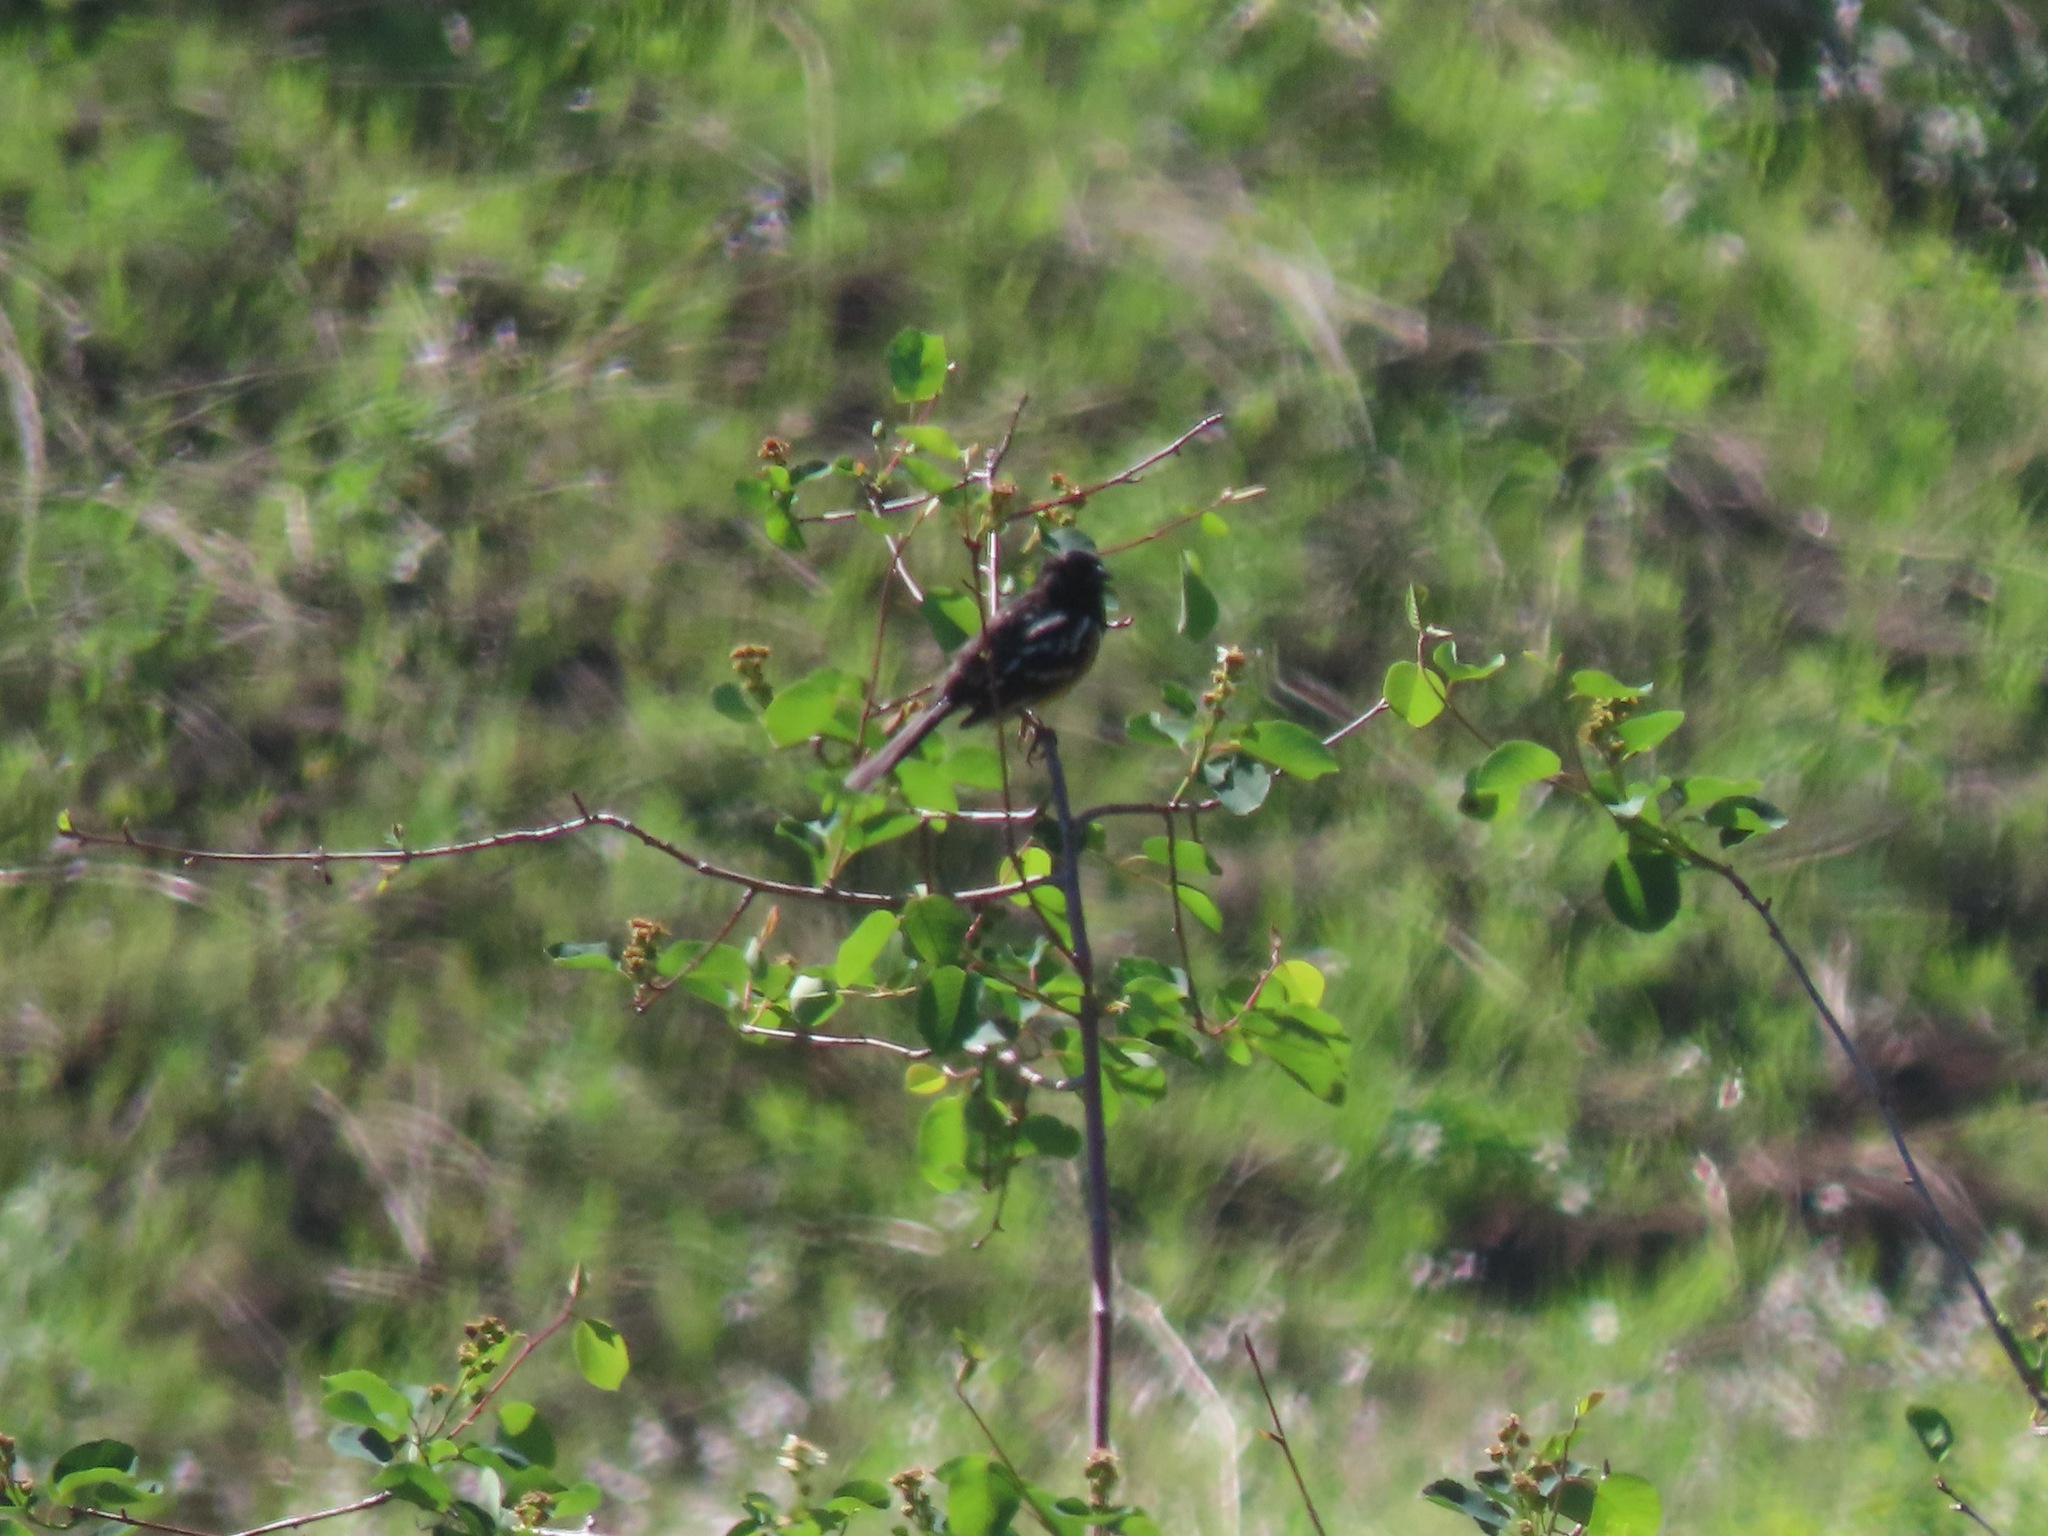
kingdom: Animalia
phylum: Chordata
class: Aves
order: Passeriformes
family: Passerellidae
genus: Pipilo
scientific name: Pipilo maculatus
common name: Spotted towhee
